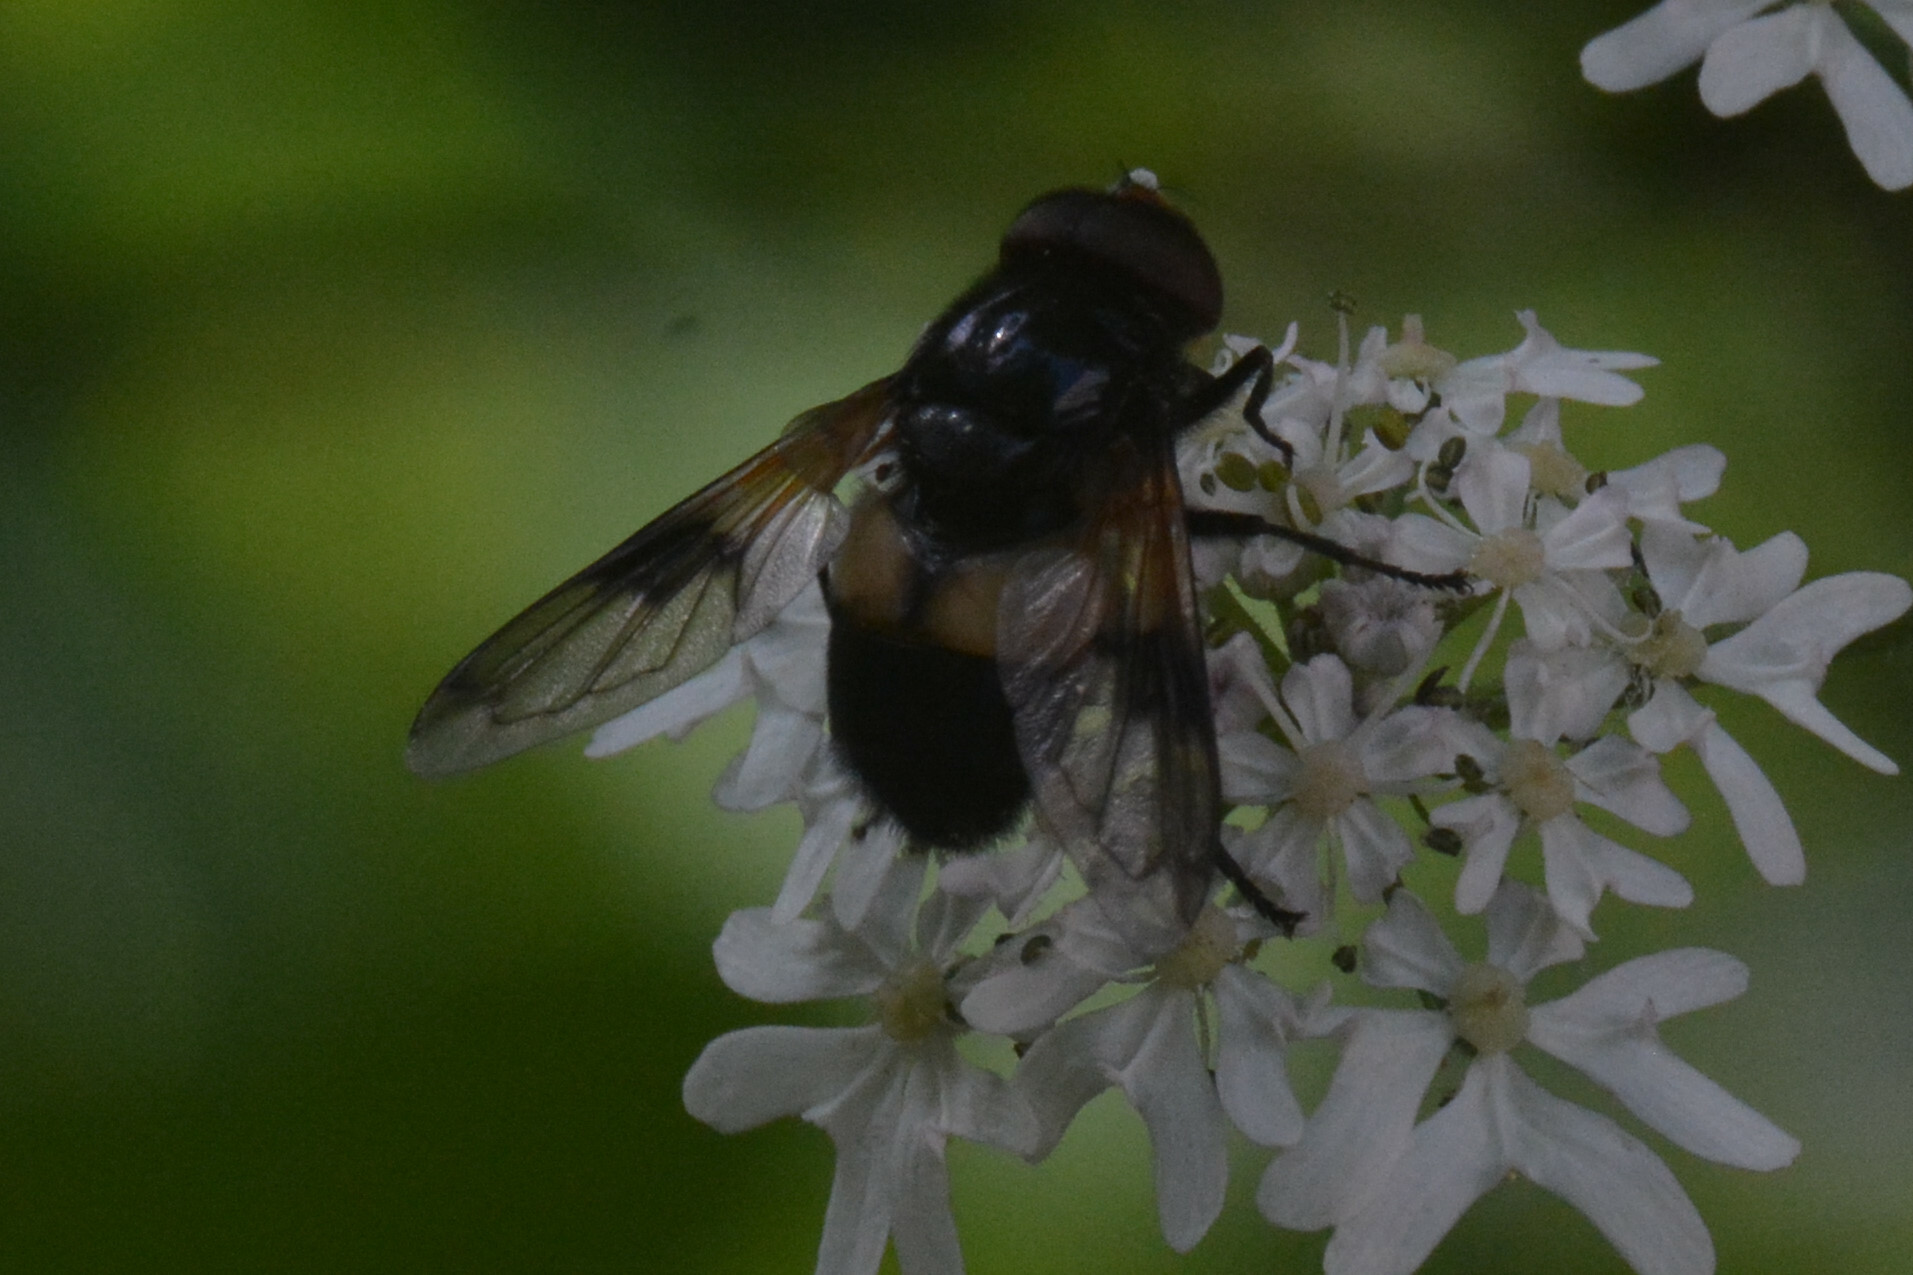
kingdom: Animalia
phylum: Arthropoda
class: Insecta
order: Diptera
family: Syrphidae
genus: Volucella
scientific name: Volucella pellucens
